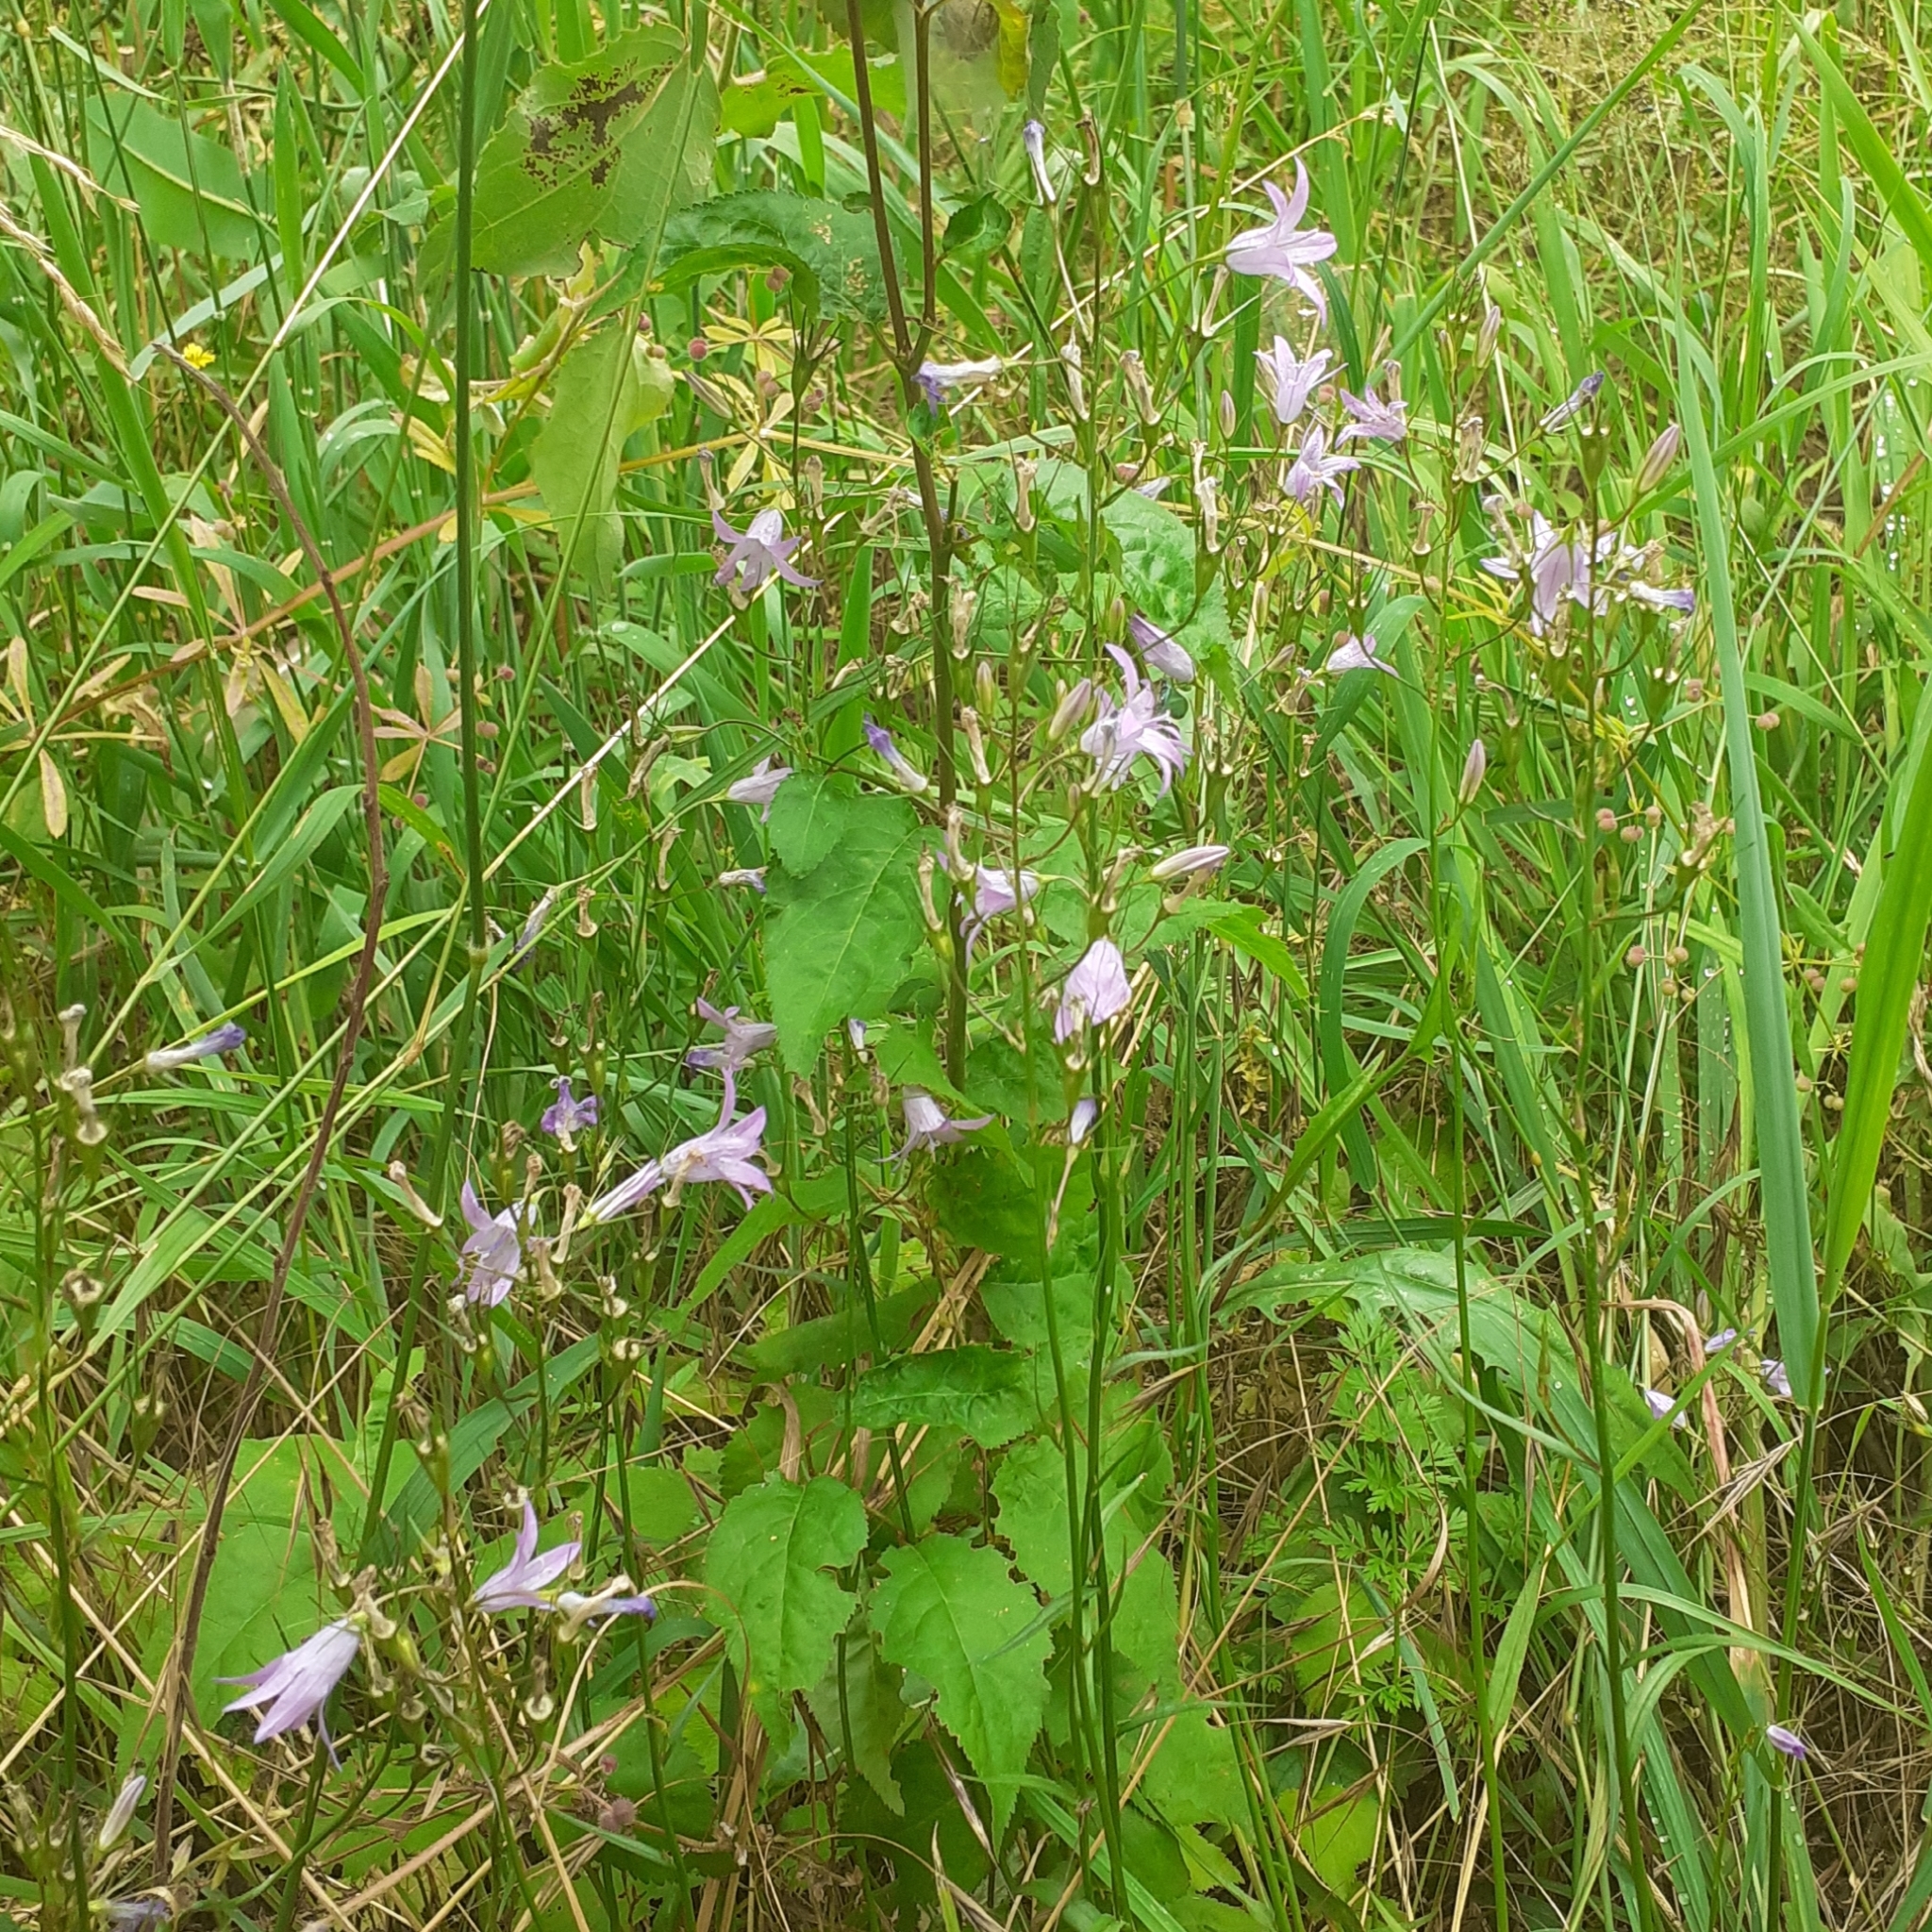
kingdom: Plantae
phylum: Tracheophyta
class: Magnoliopsida
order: Asterales
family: Campanulaceae
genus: Campanula
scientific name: Campanula rapunculus
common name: Rampion bellflower
